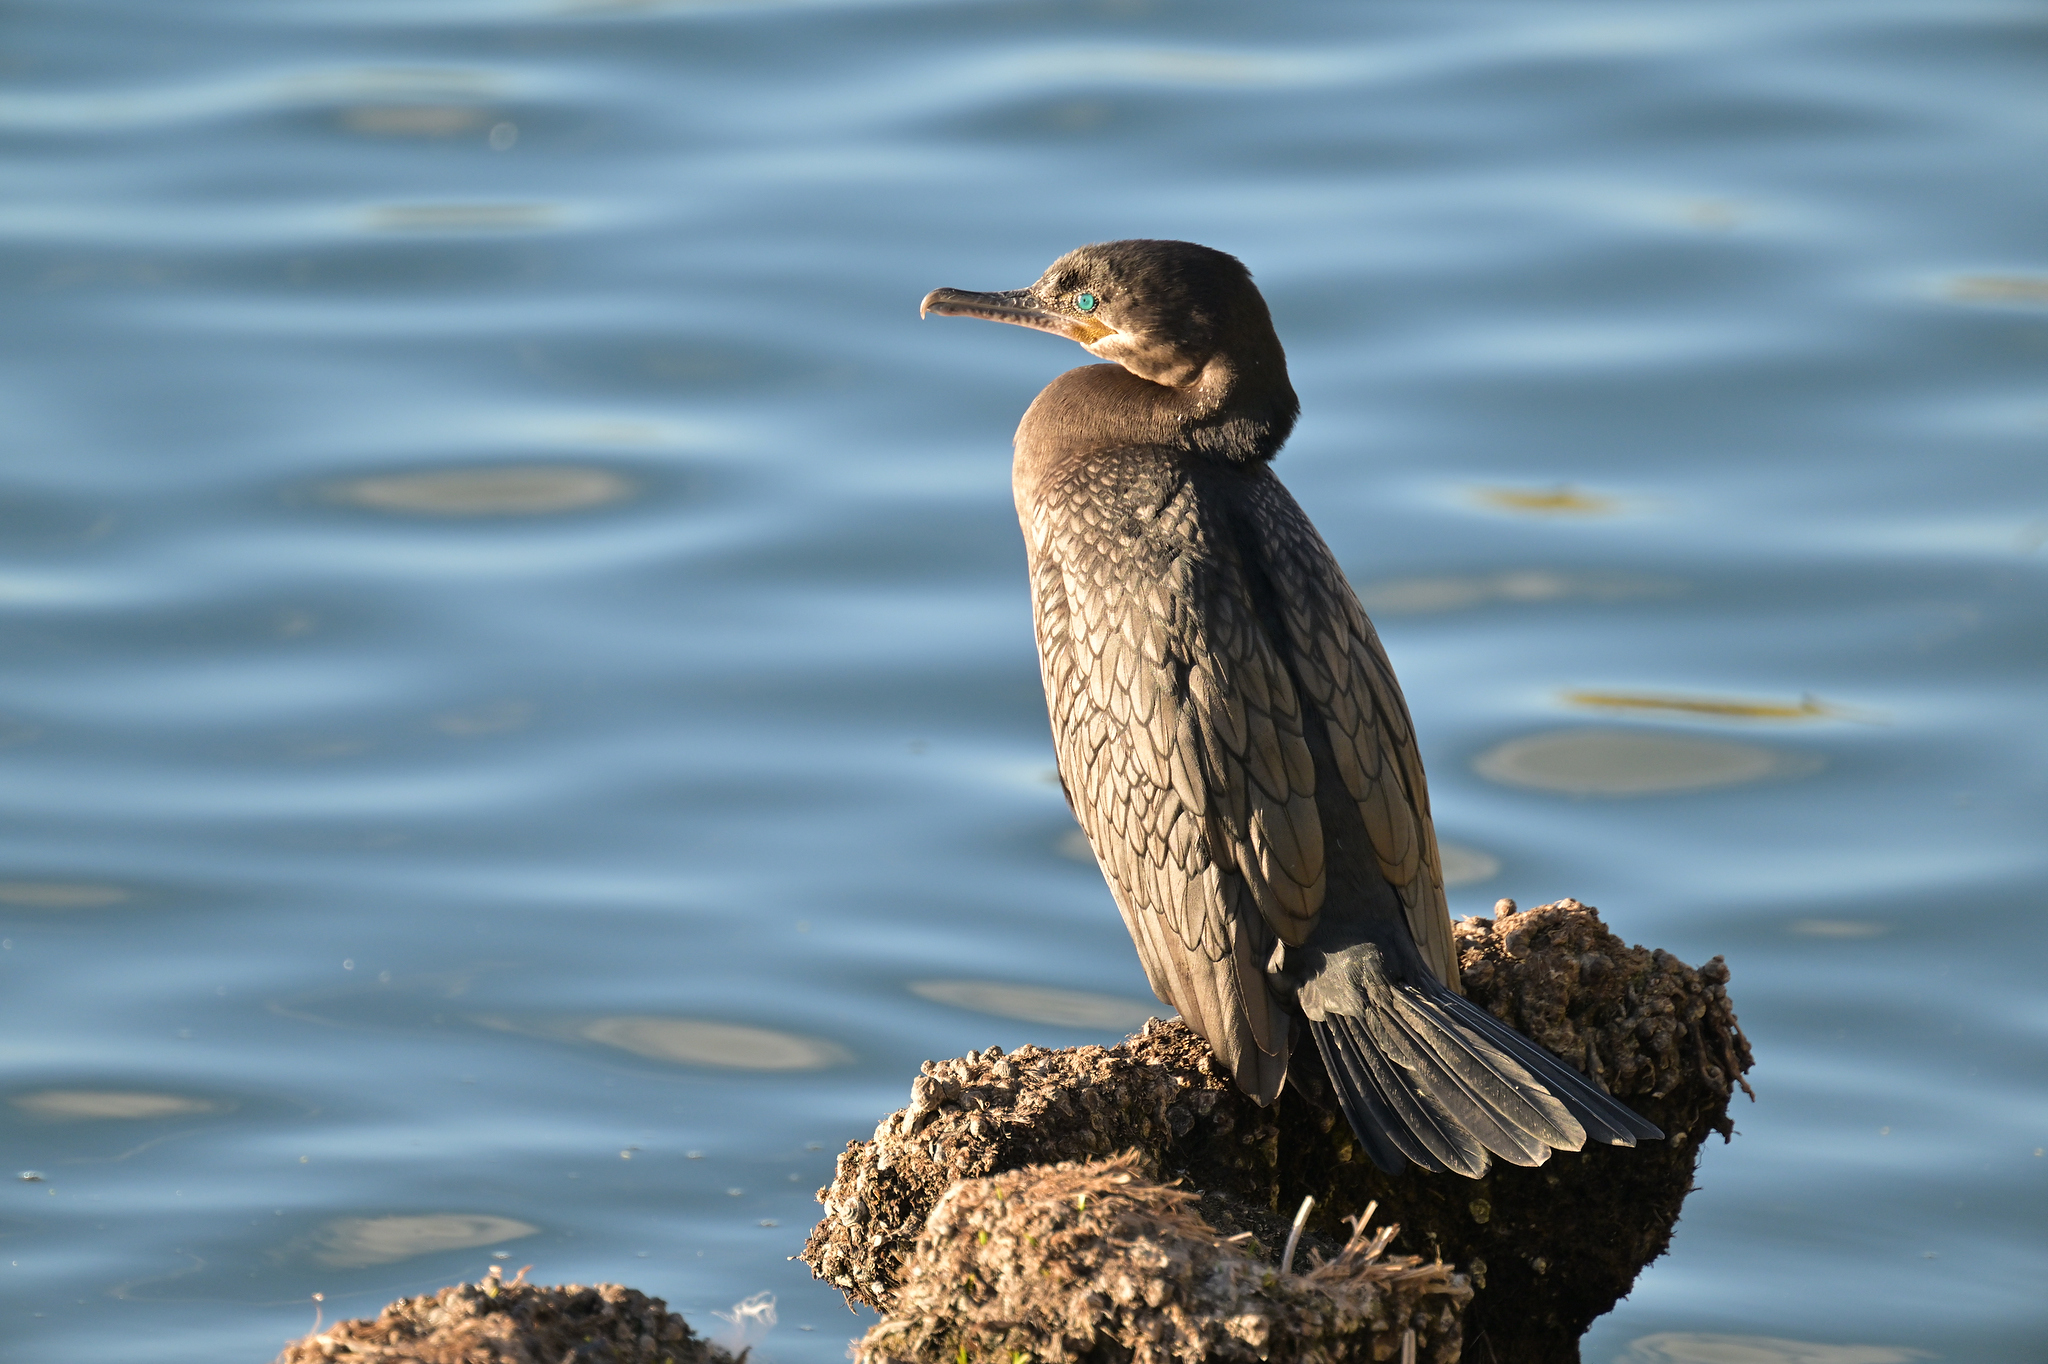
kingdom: Animalia
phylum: Chordata
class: Aves
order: Suliformes
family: Phalacrocoracidae
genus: Phalacrocorax
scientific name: Phalacrocorax brasilianus
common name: Neotropic cormorant
